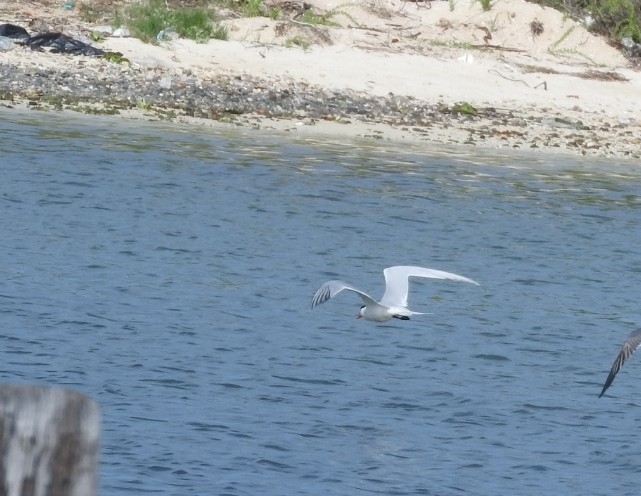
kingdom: Animalia
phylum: Chordata
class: Aves
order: Charadriiformes
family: Laridae
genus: Hydroprogne
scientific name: Hydroprogne caspia
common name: Caspian tern
